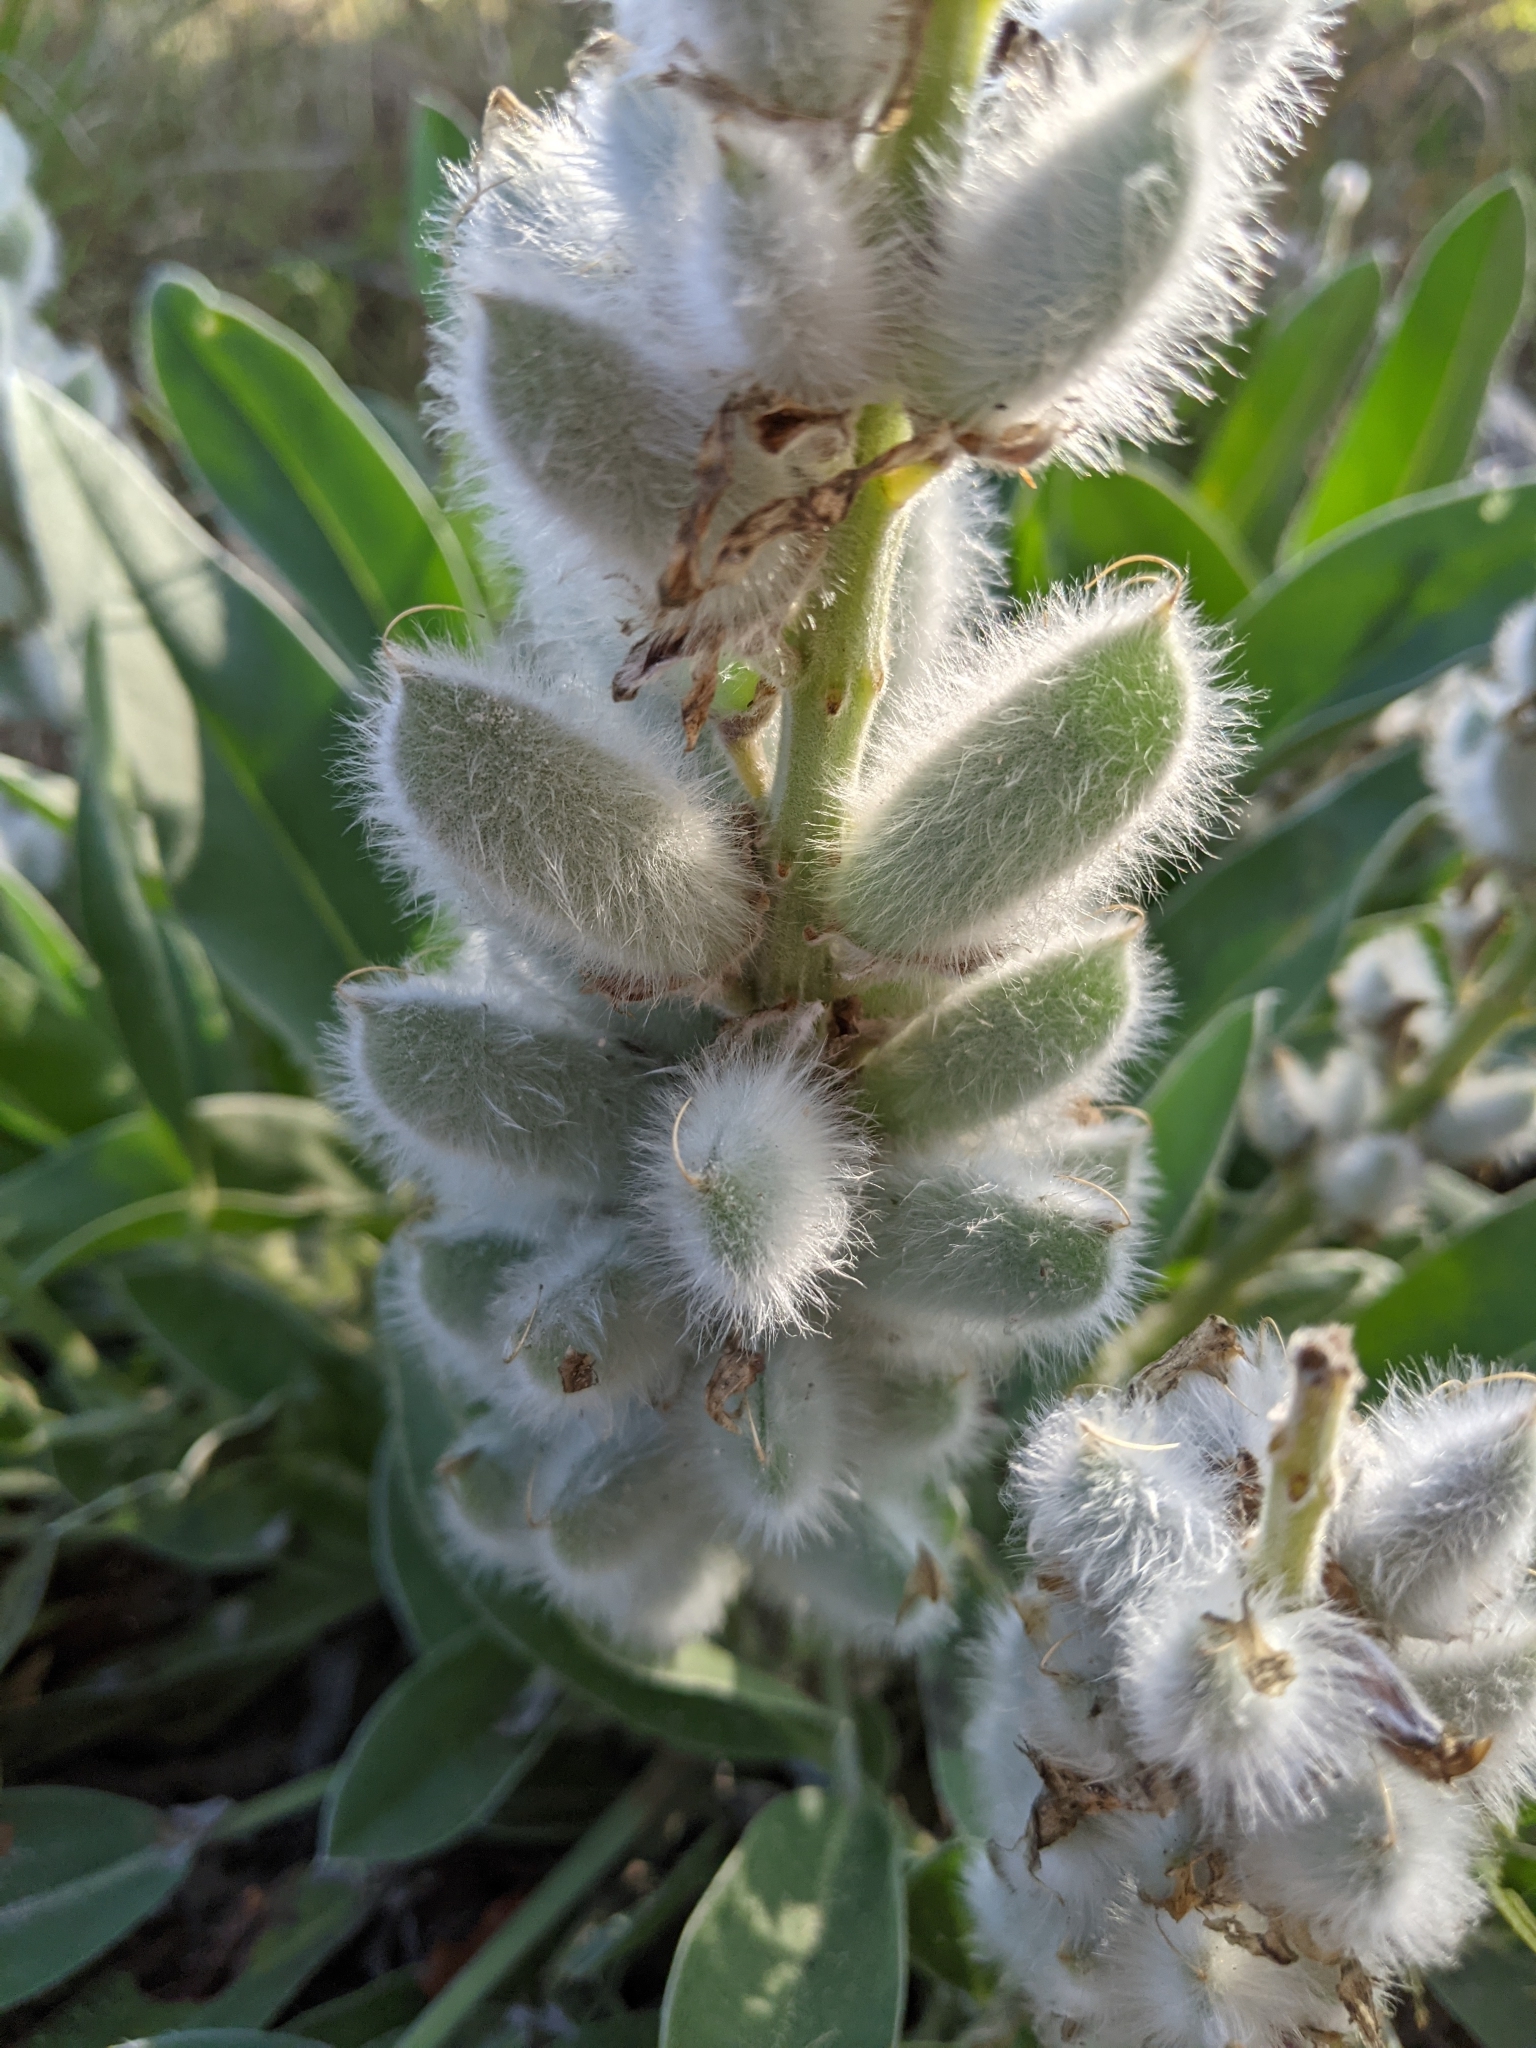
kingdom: Plantae
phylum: Tracheophyta
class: Magnoliopsida
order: Fabales
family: Fabaceae
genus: Lupinus
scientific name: Lupinus villosus
